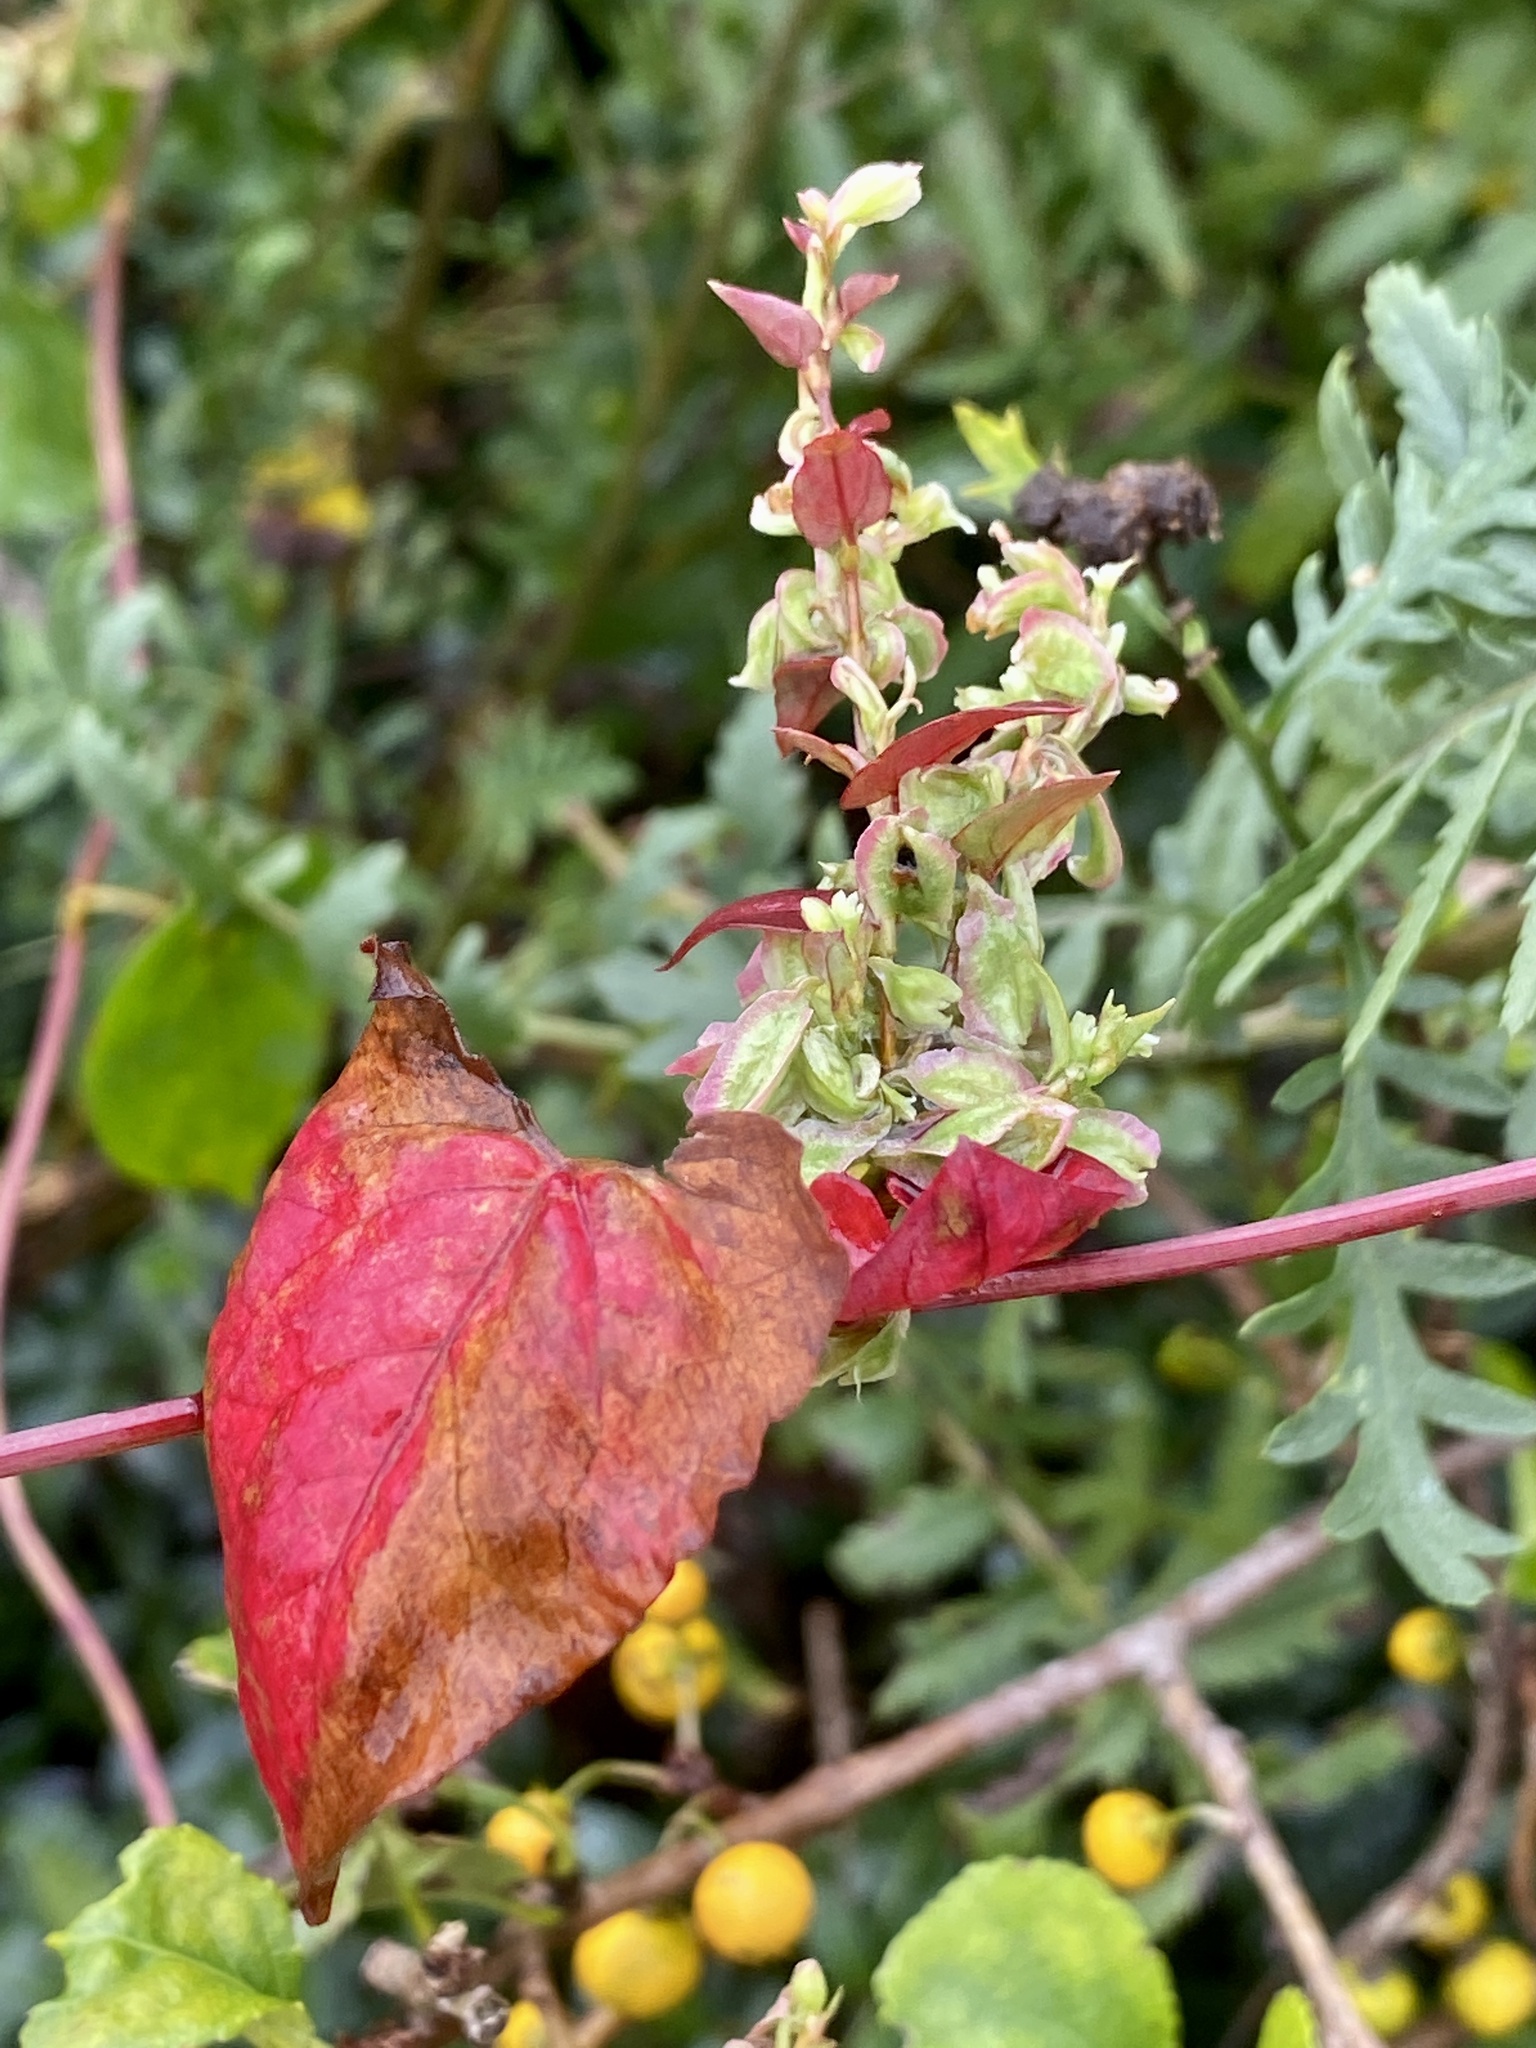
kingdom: Plantae
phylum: Tracheophyta
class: Magnoliopsida
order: Caryophyllales
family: Polygonaceae
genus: Fallopia
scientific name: Fallopia scandens
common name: Climbing false buckwheat
